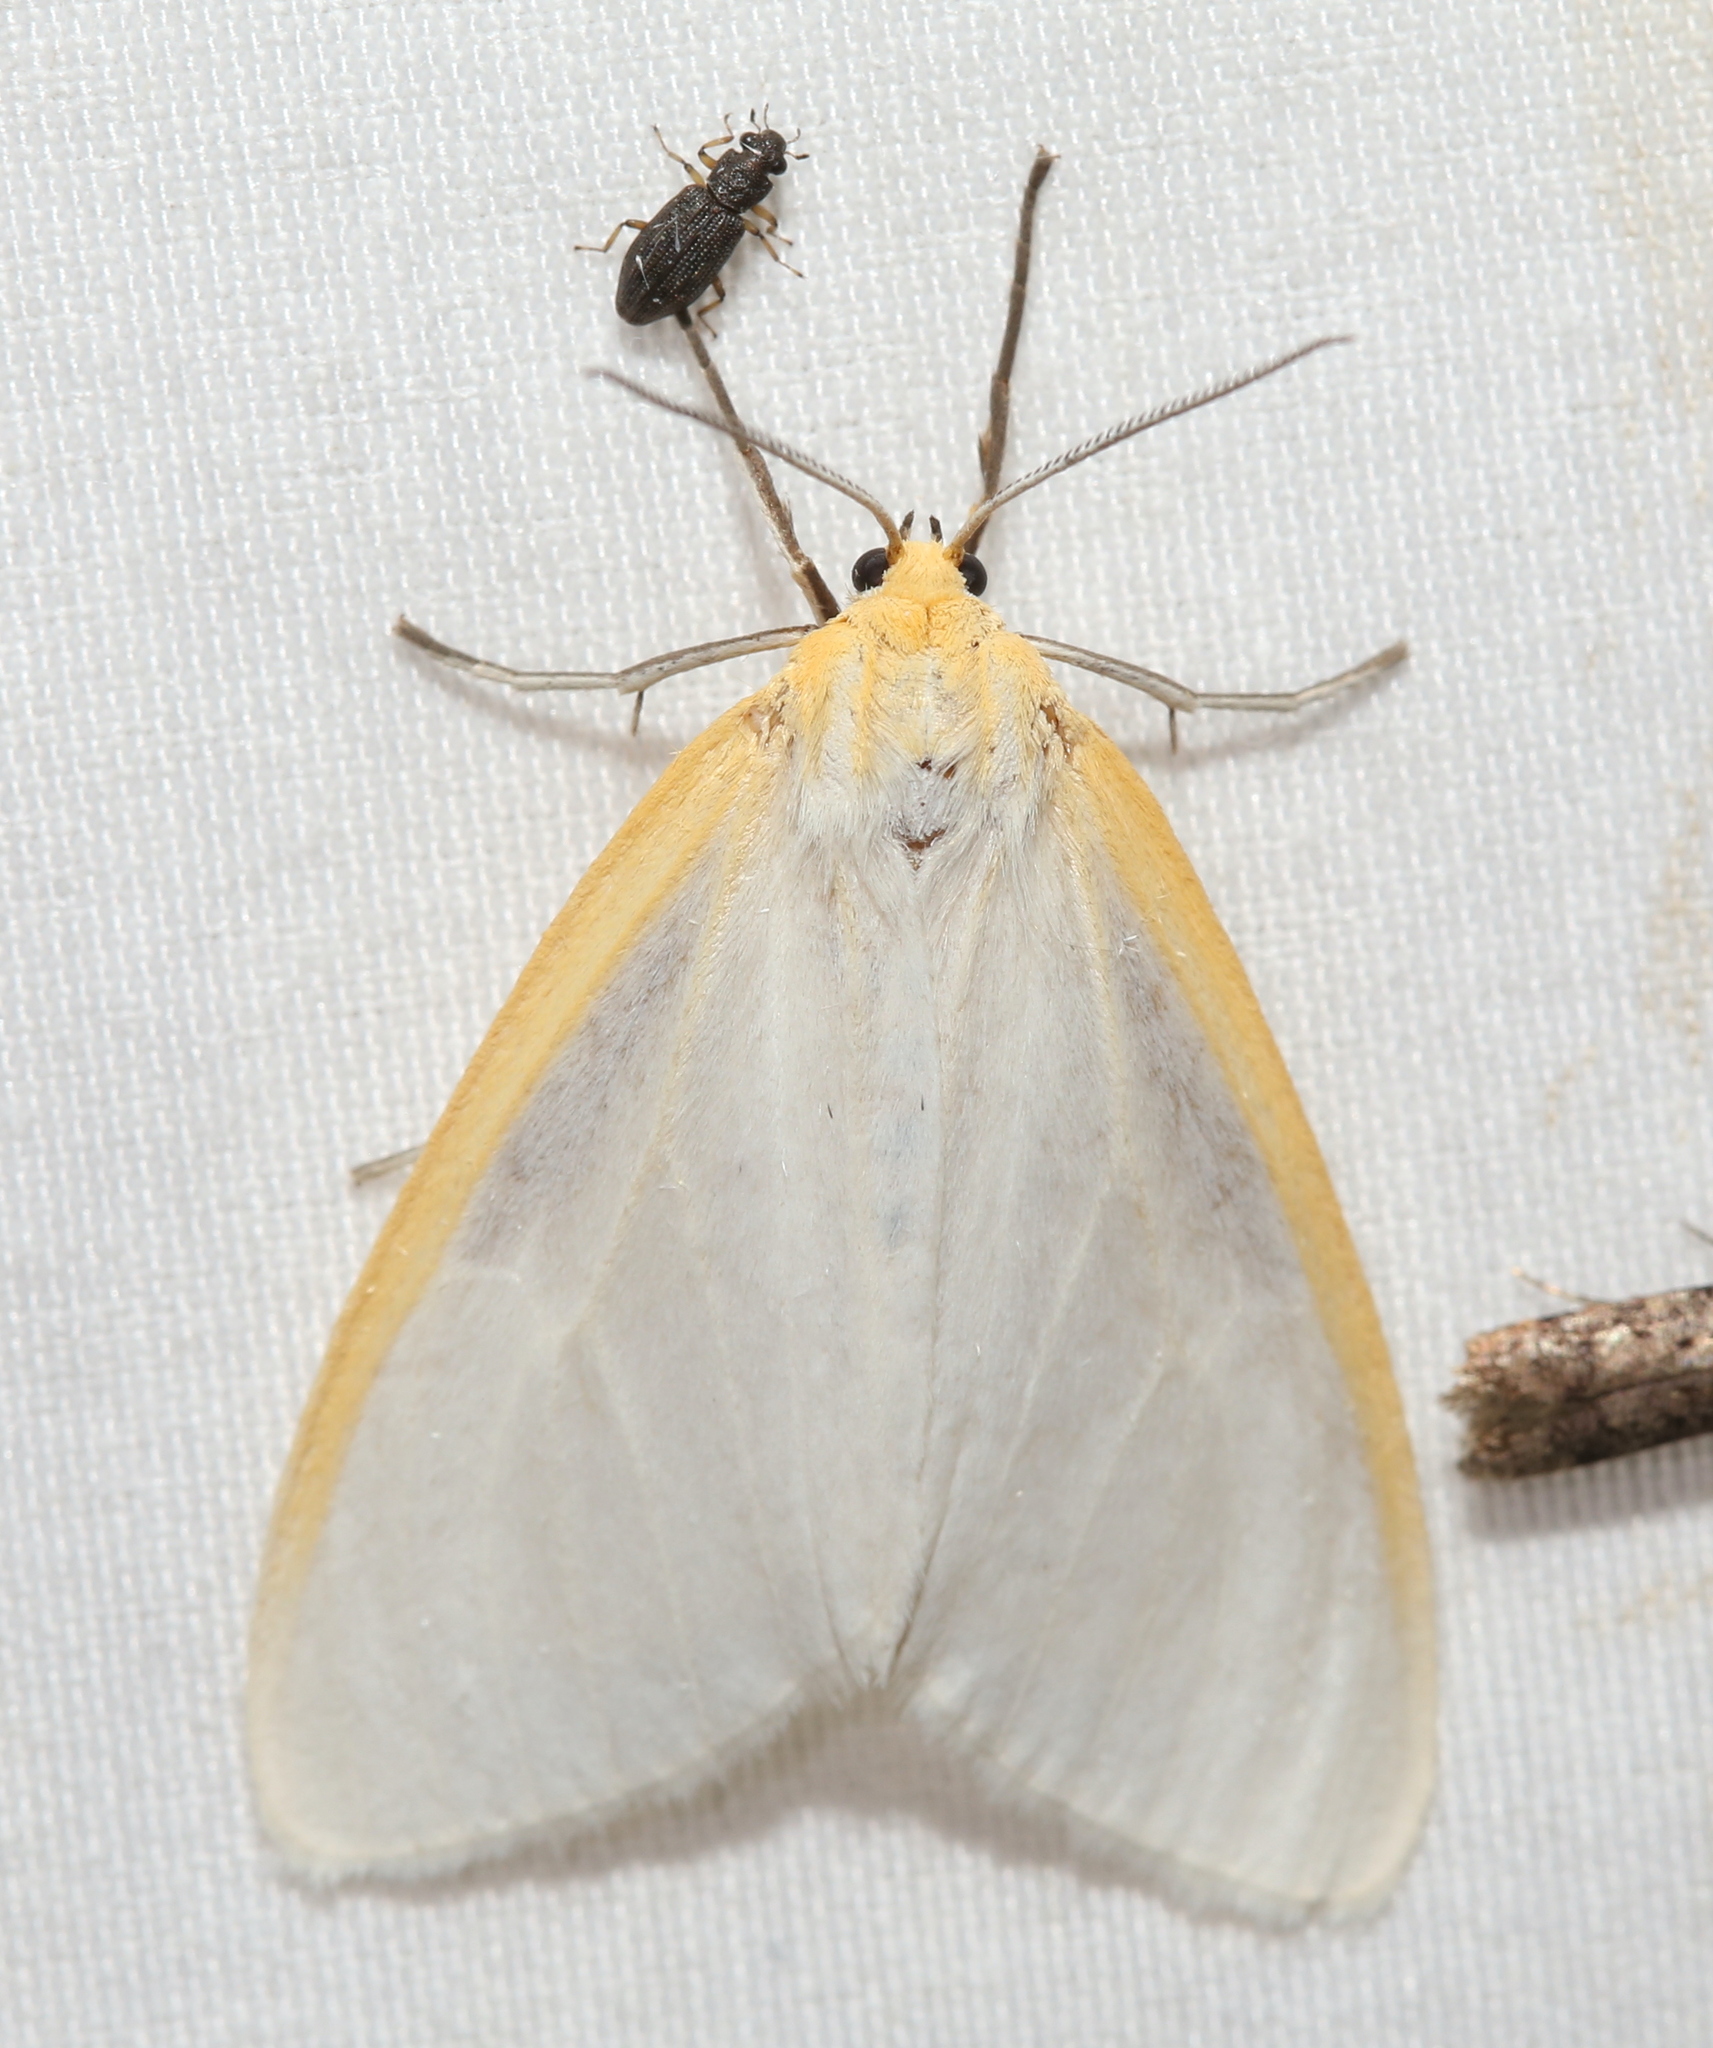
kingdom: Animalia
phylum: Arthropoda
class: Insecta
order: Lepidoptera
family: Erebidae
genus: Cycnia
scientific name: Cycnia tenera
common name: Delicate cycnia moth
